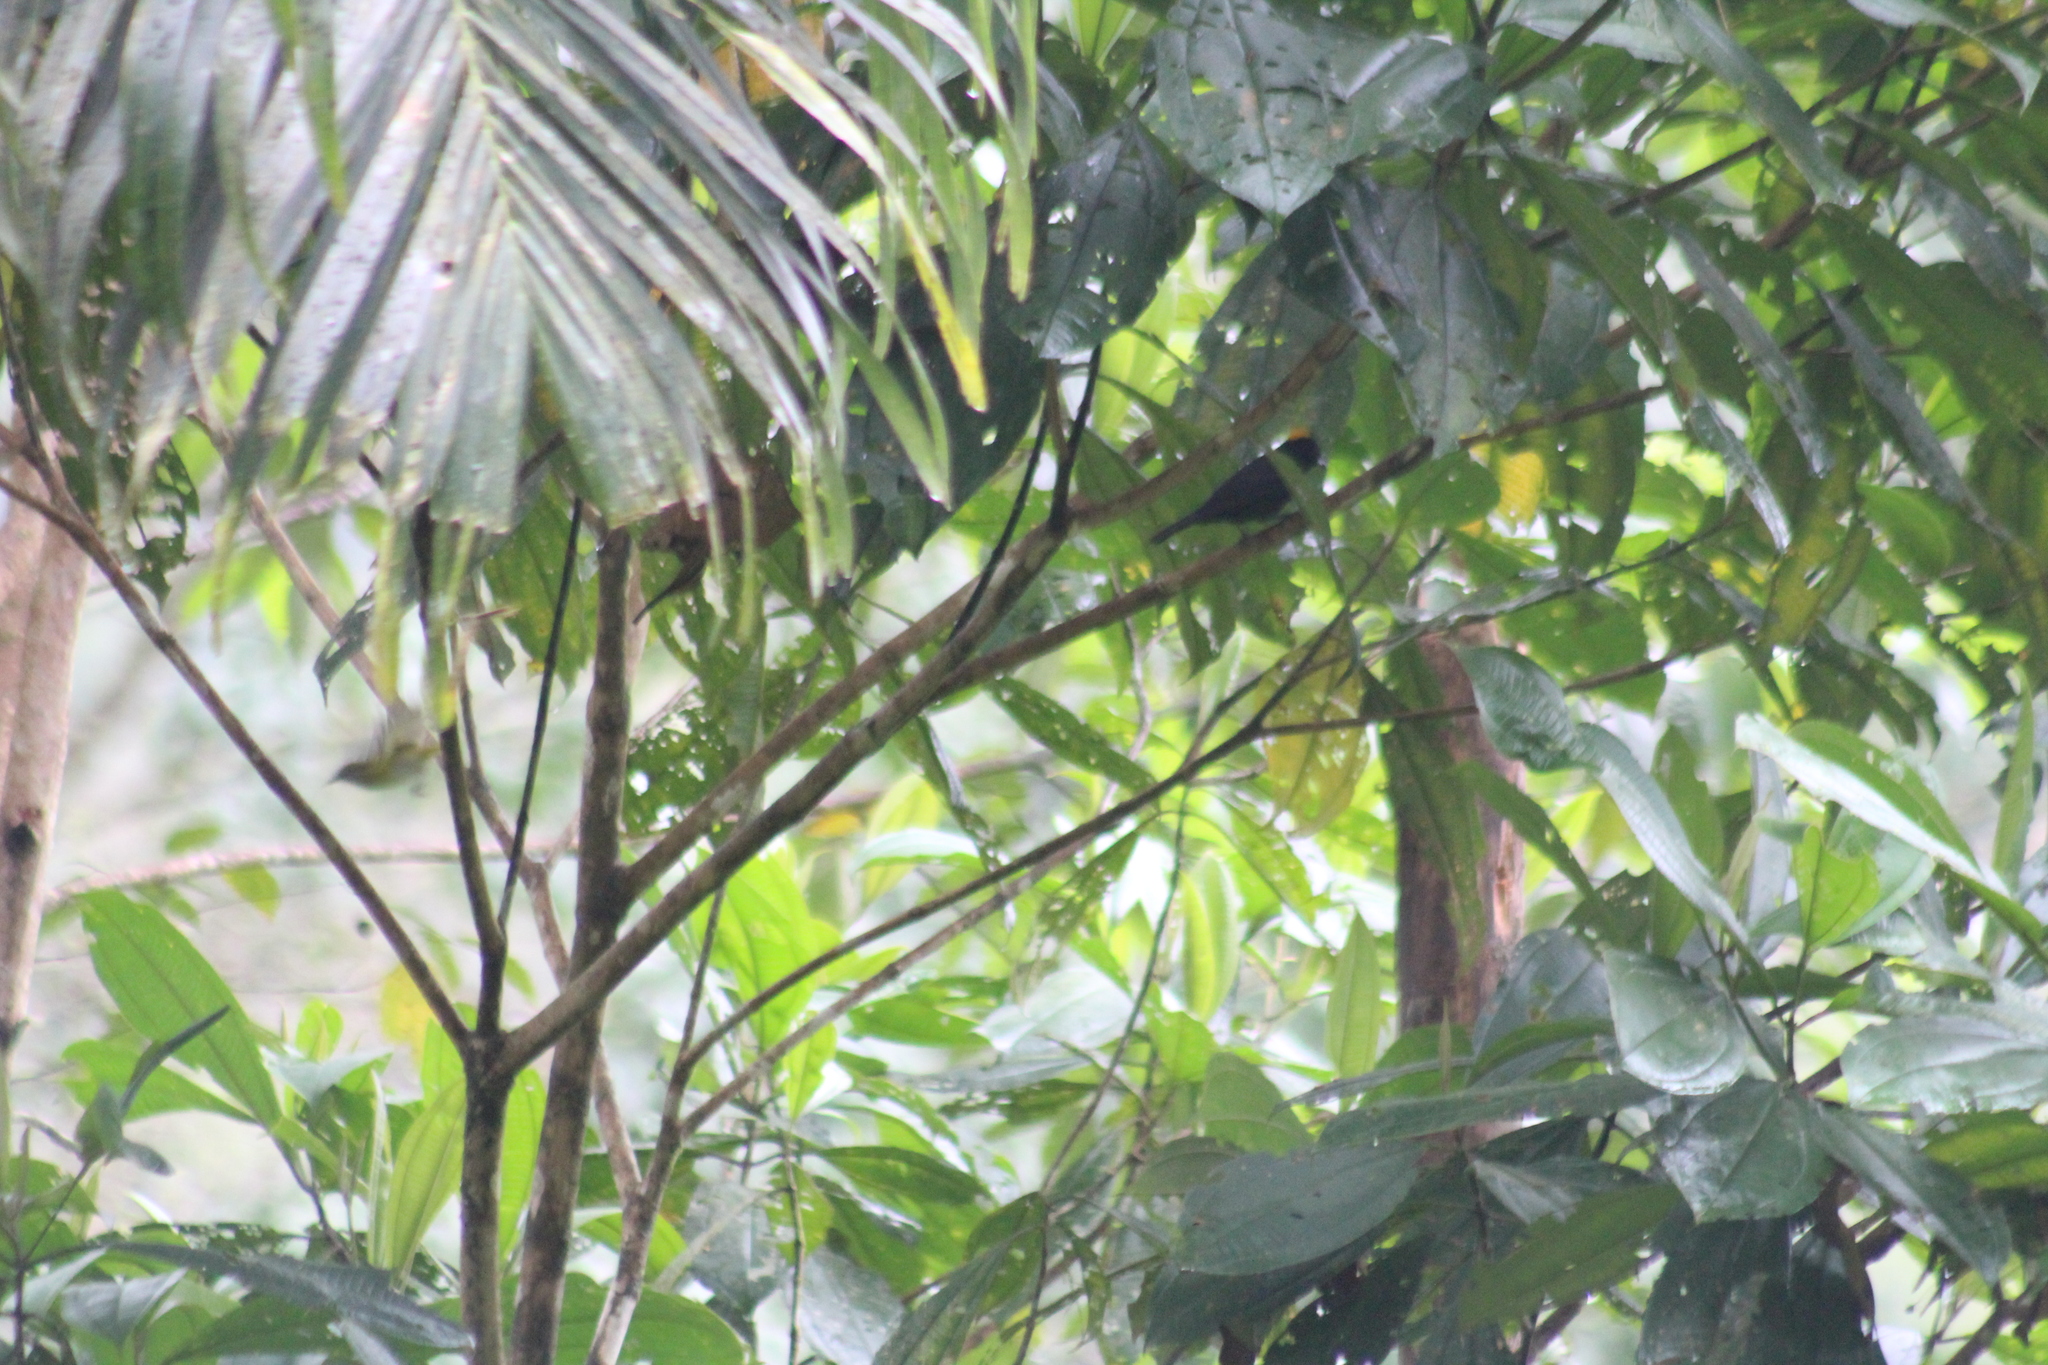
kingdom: Animalia
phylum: Chordata
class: Aves
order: Passeriformes
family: Thraupidae
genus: Tachyphonus
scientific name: Tachyphonus delatrii
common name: Tawny-crested tanager
